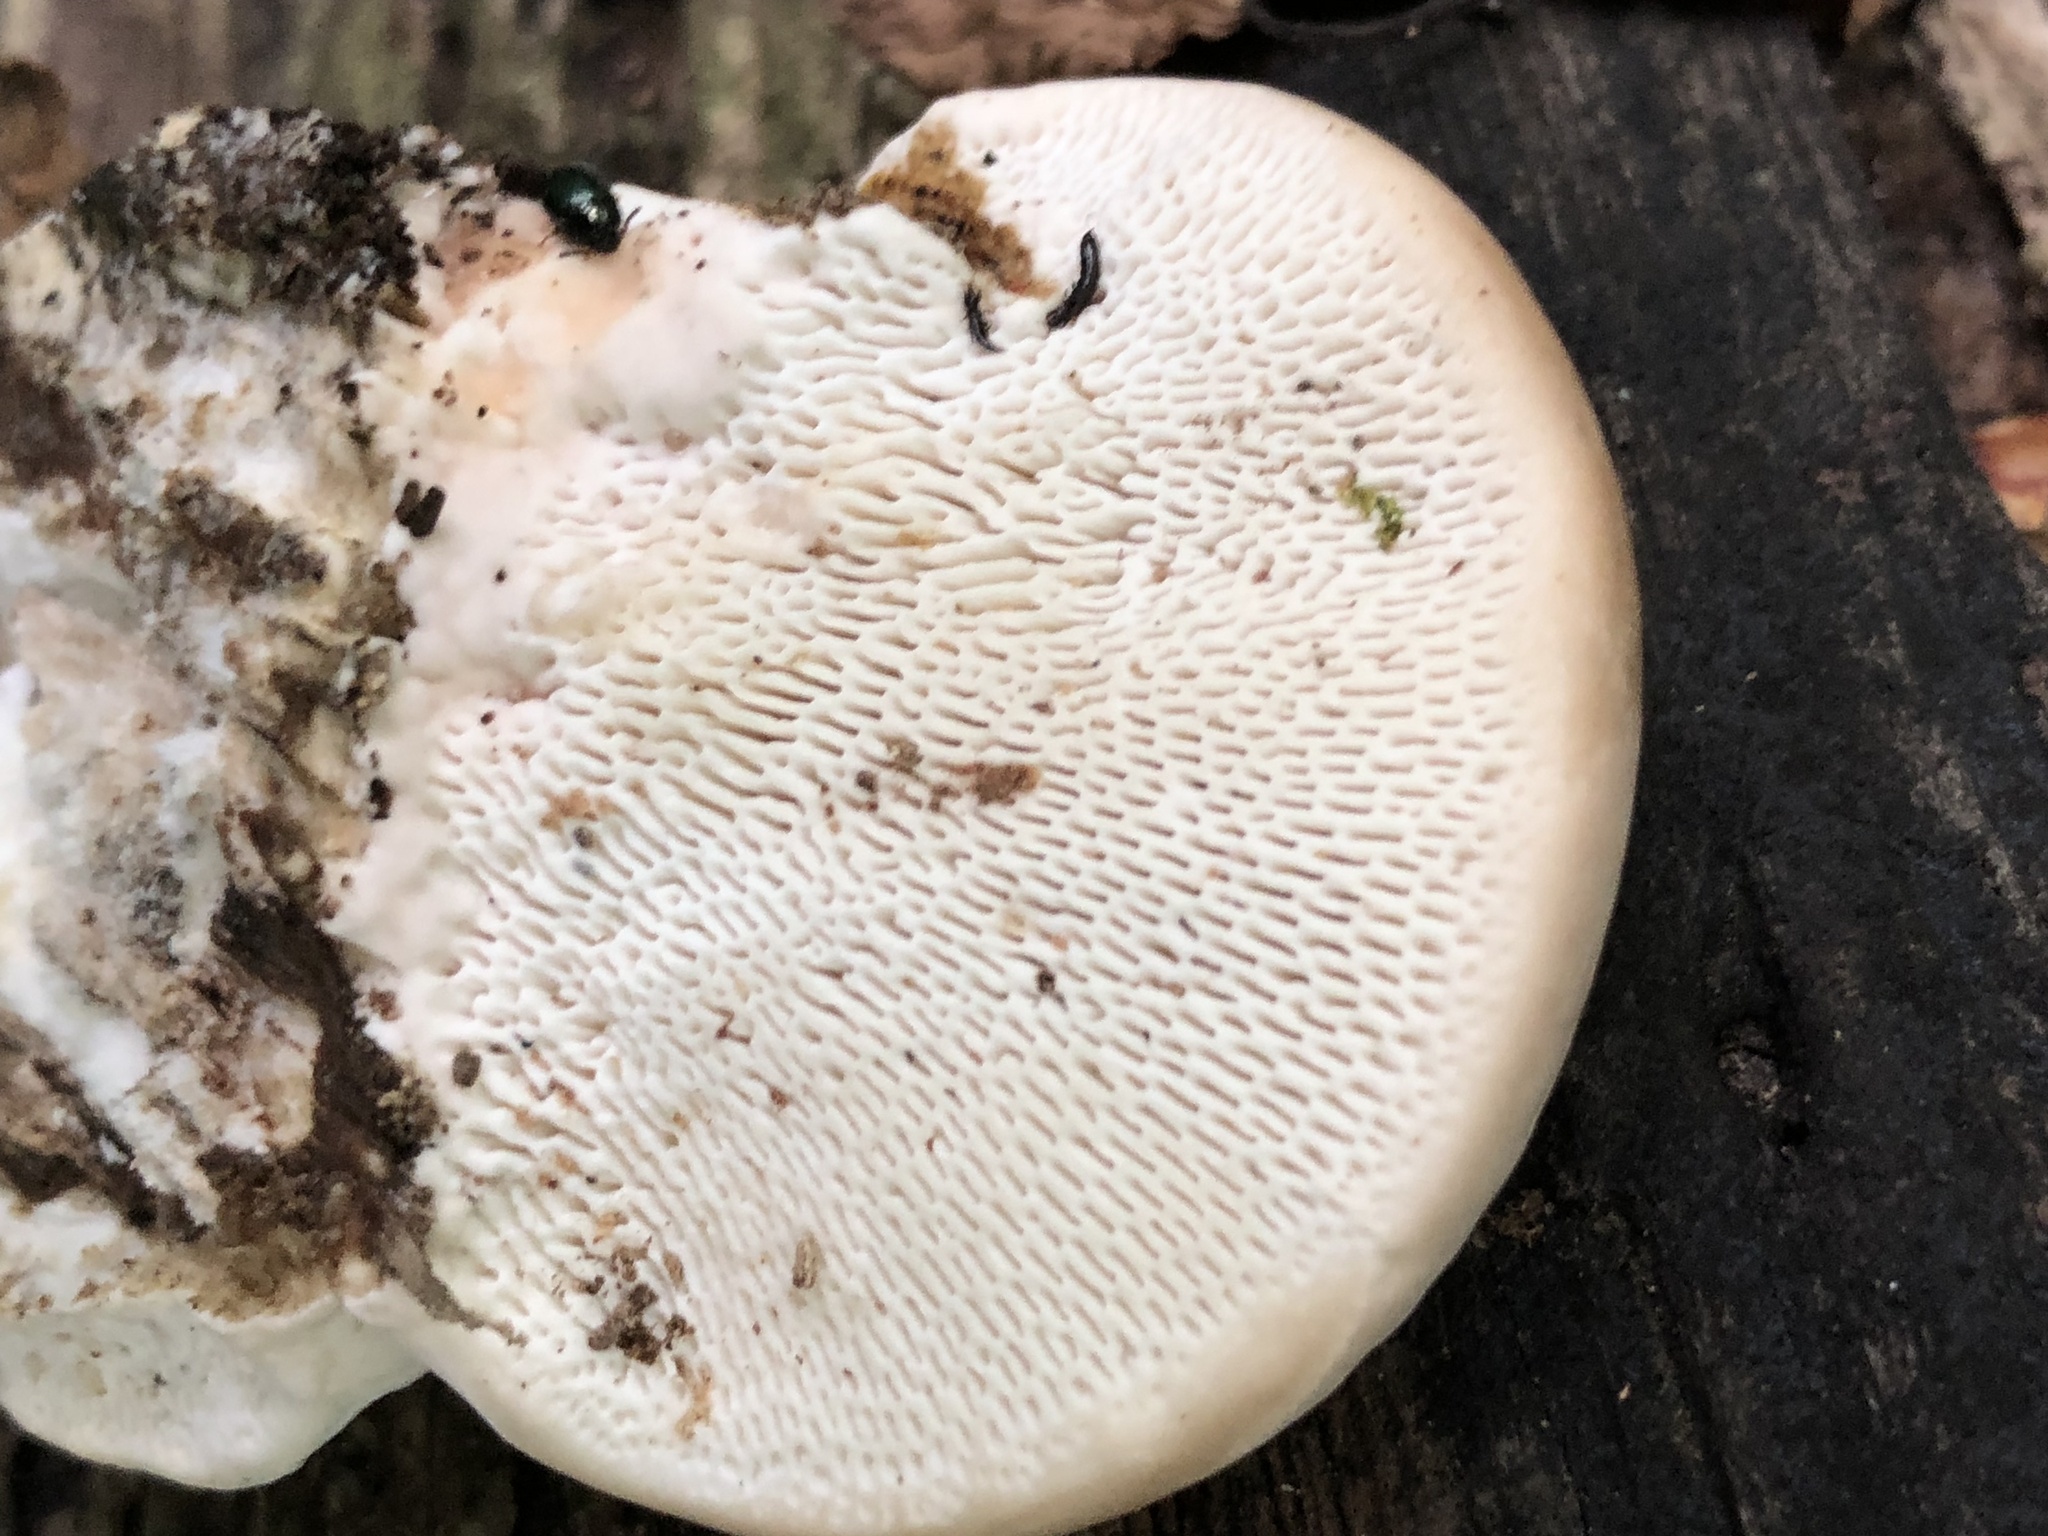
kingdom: Fungi
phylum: Basidiomycota
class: Agaricomycetes
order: Polyporales
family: Polyporaceae
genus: Trametes
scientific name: Trametes gibbosa
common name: Lumpy bracket
